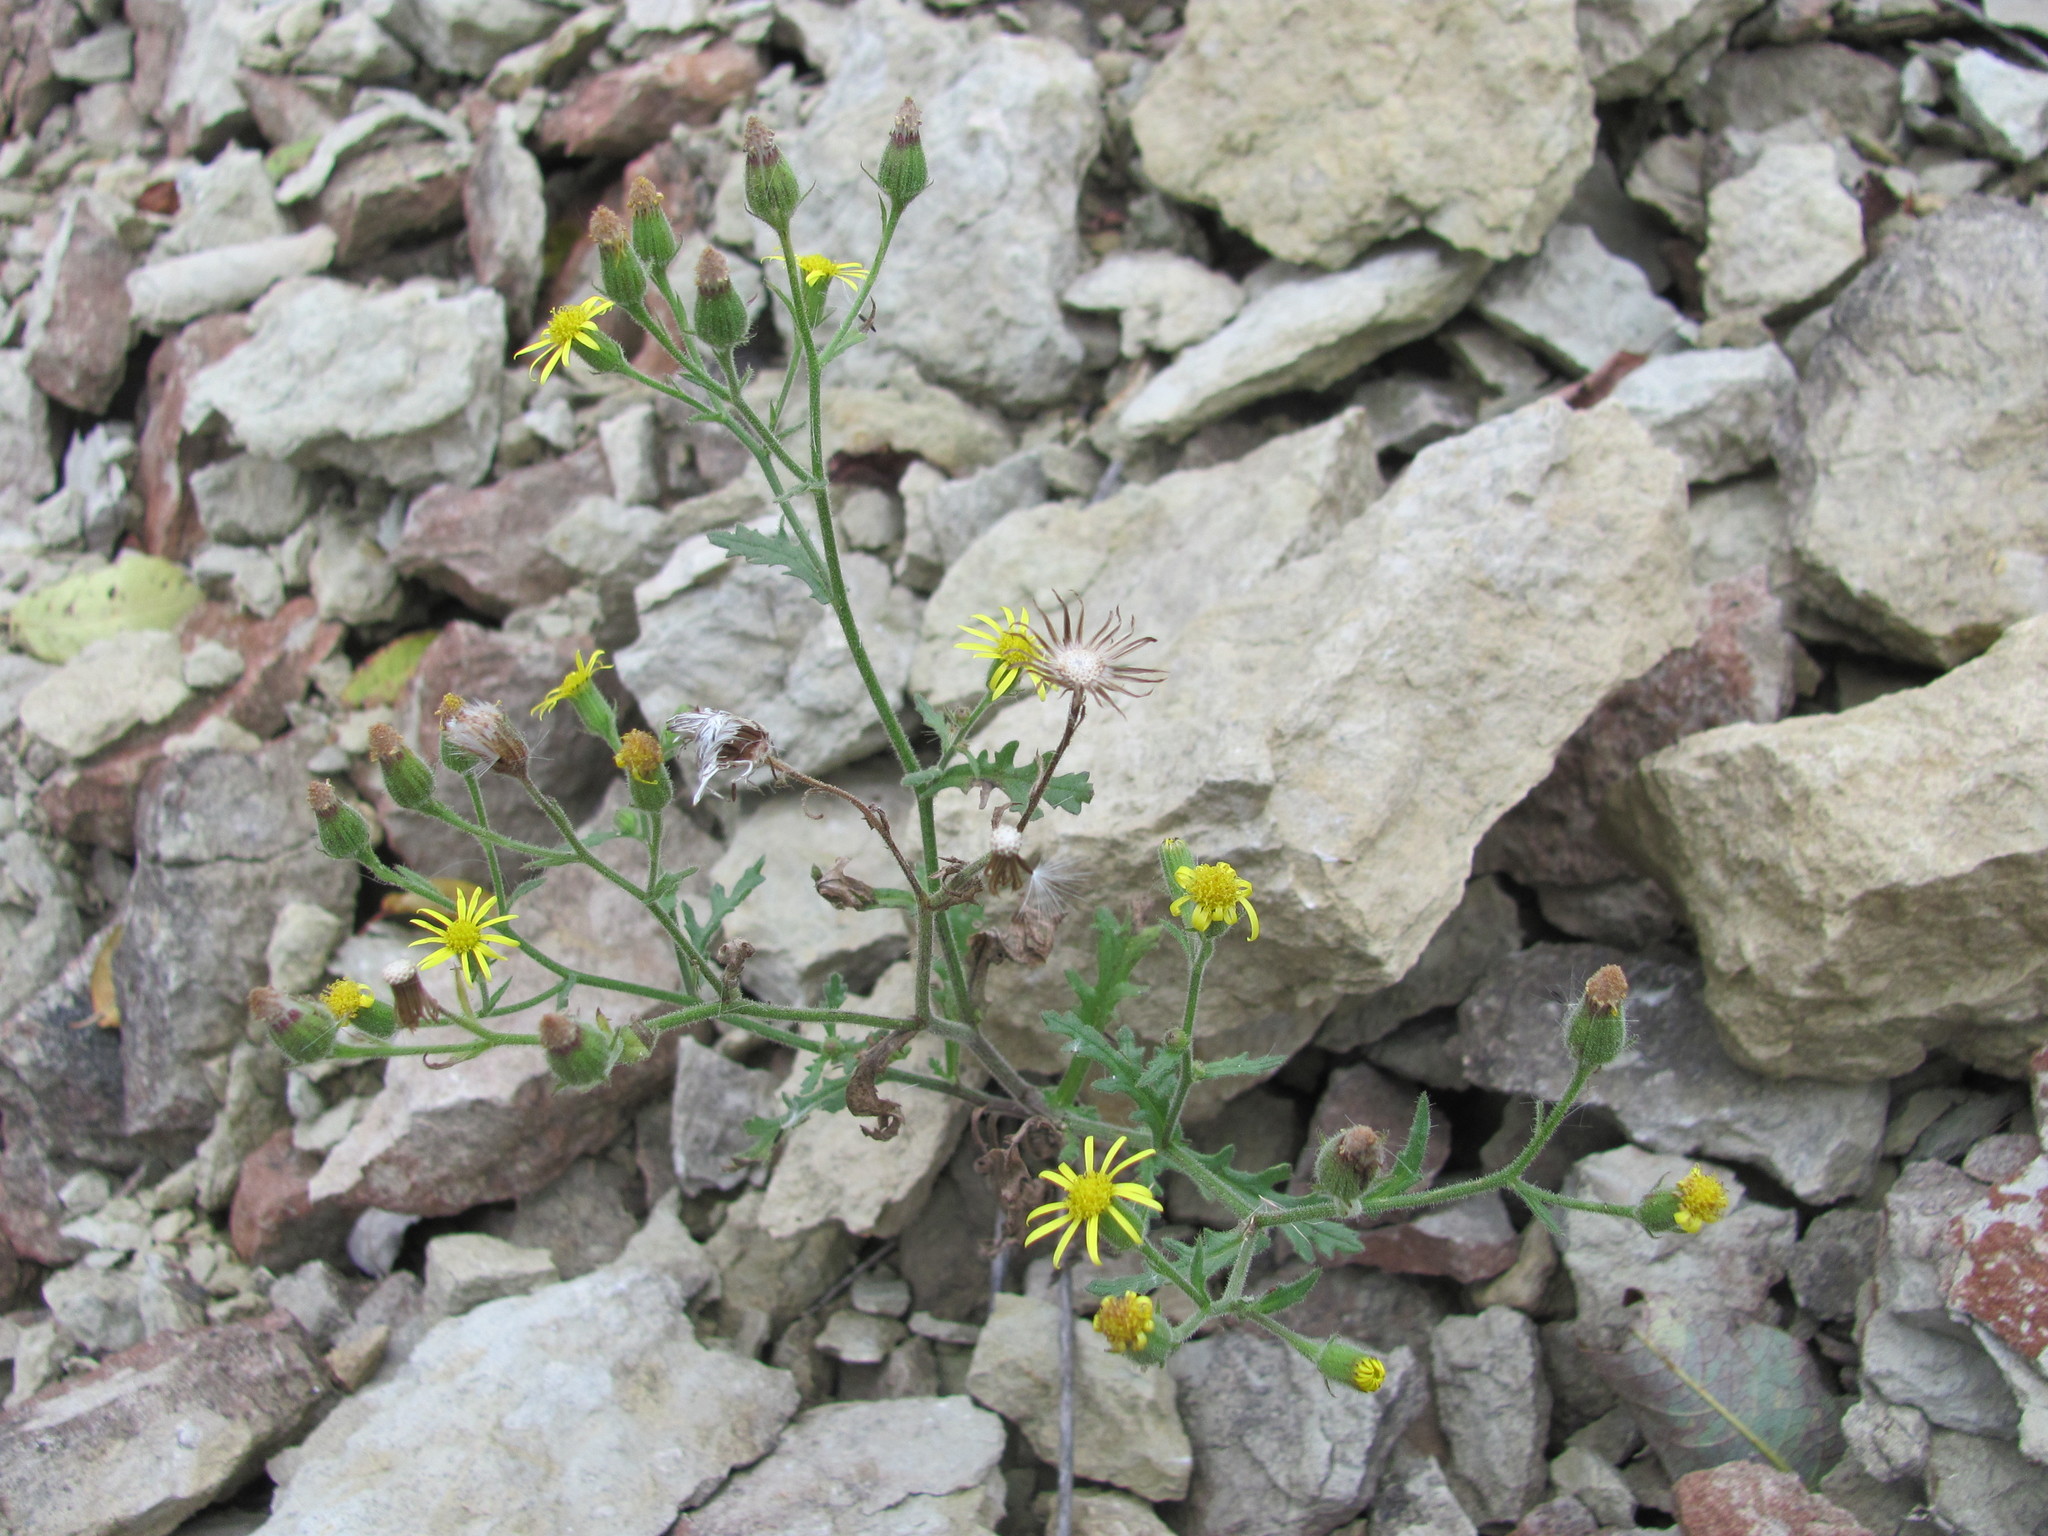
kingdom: Plantae
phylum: Tracheophyta
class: Magnoliopsida
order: Asterales
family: Asteraceae
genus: Senecio
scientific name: Senecio viscosus
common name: Sticky groundsel
